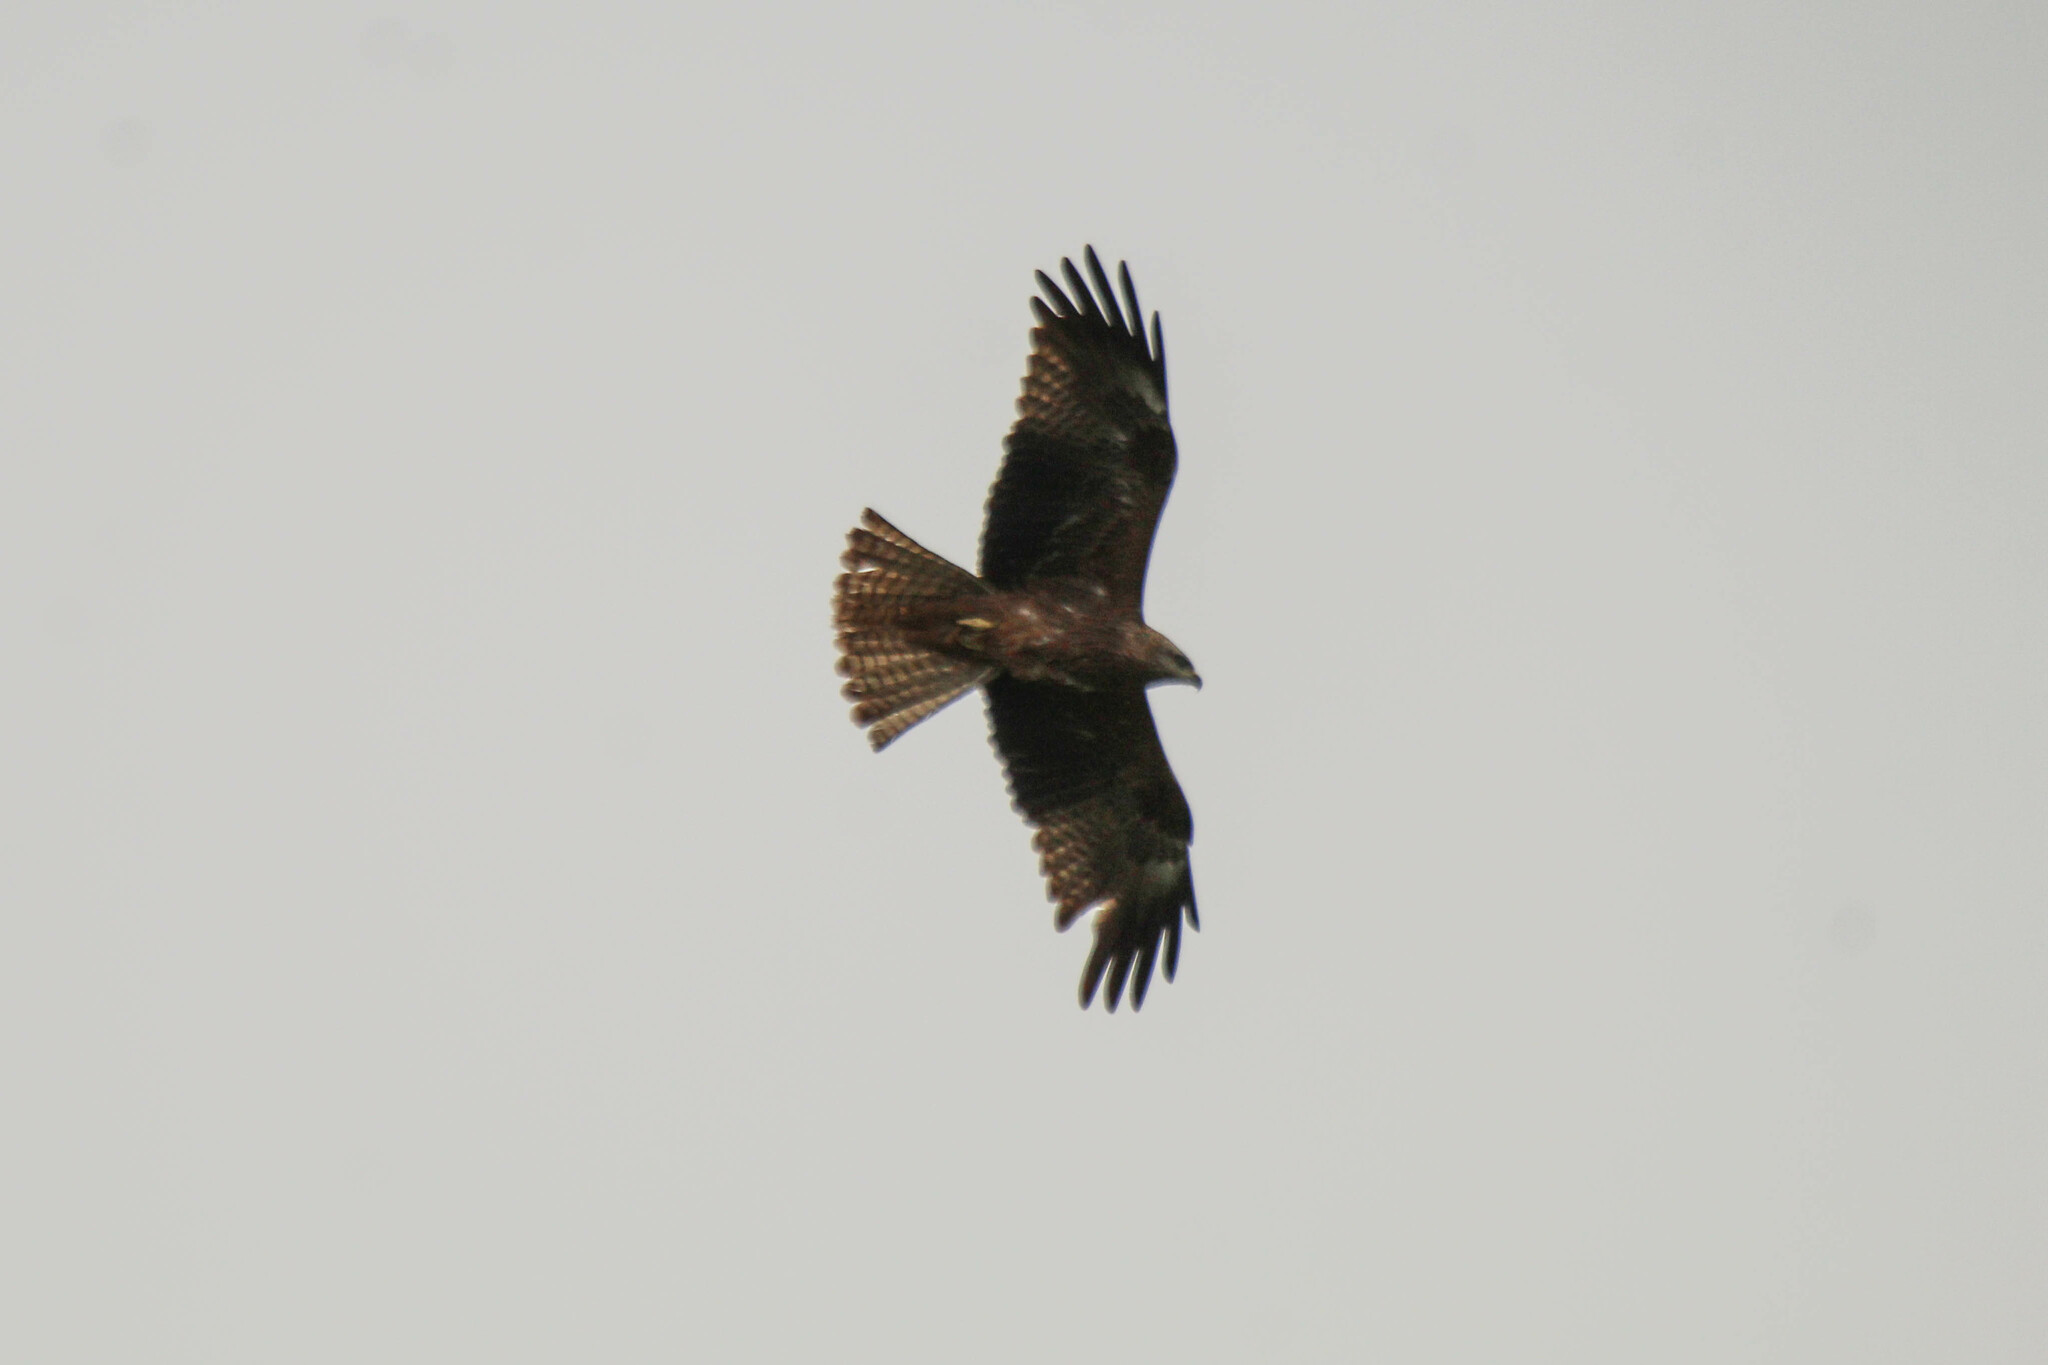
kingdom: Animalia
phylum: Chordata
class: Aves
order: Accipitriformes
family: Accipitridae
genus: Milvus
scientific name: Milvus migrans
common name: Black kite
